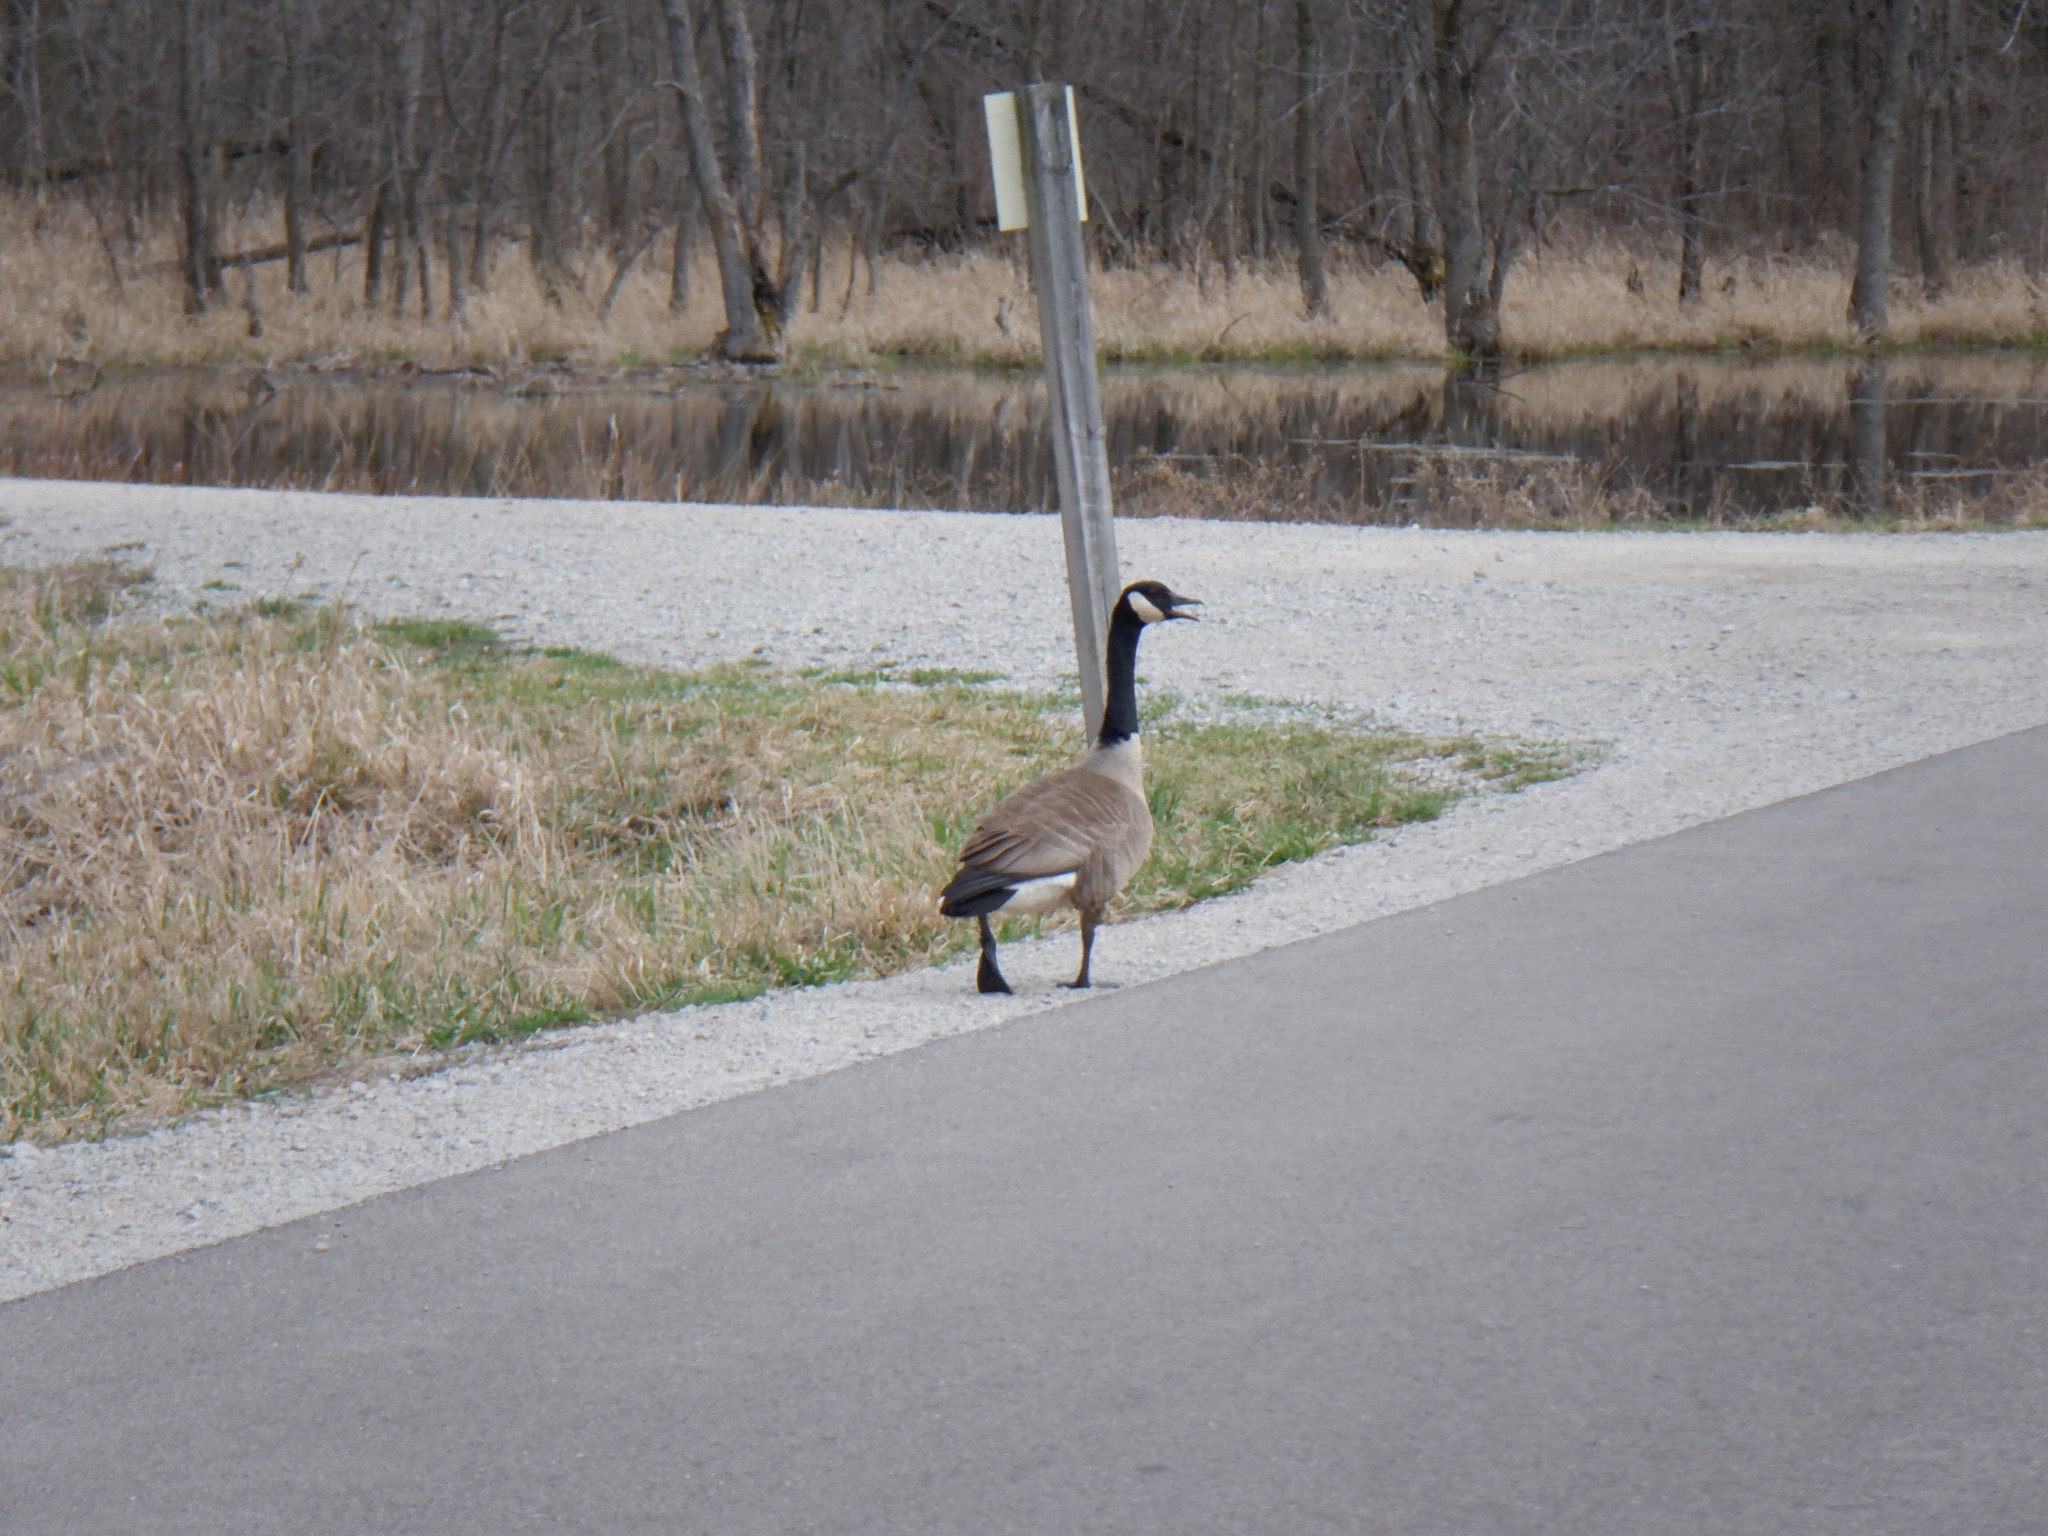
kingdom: Animalia
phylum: Chordata
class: Aves
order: Anseriformes
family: Anatidae
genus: Branta
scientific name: Branta canadensis
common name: Canada goose
